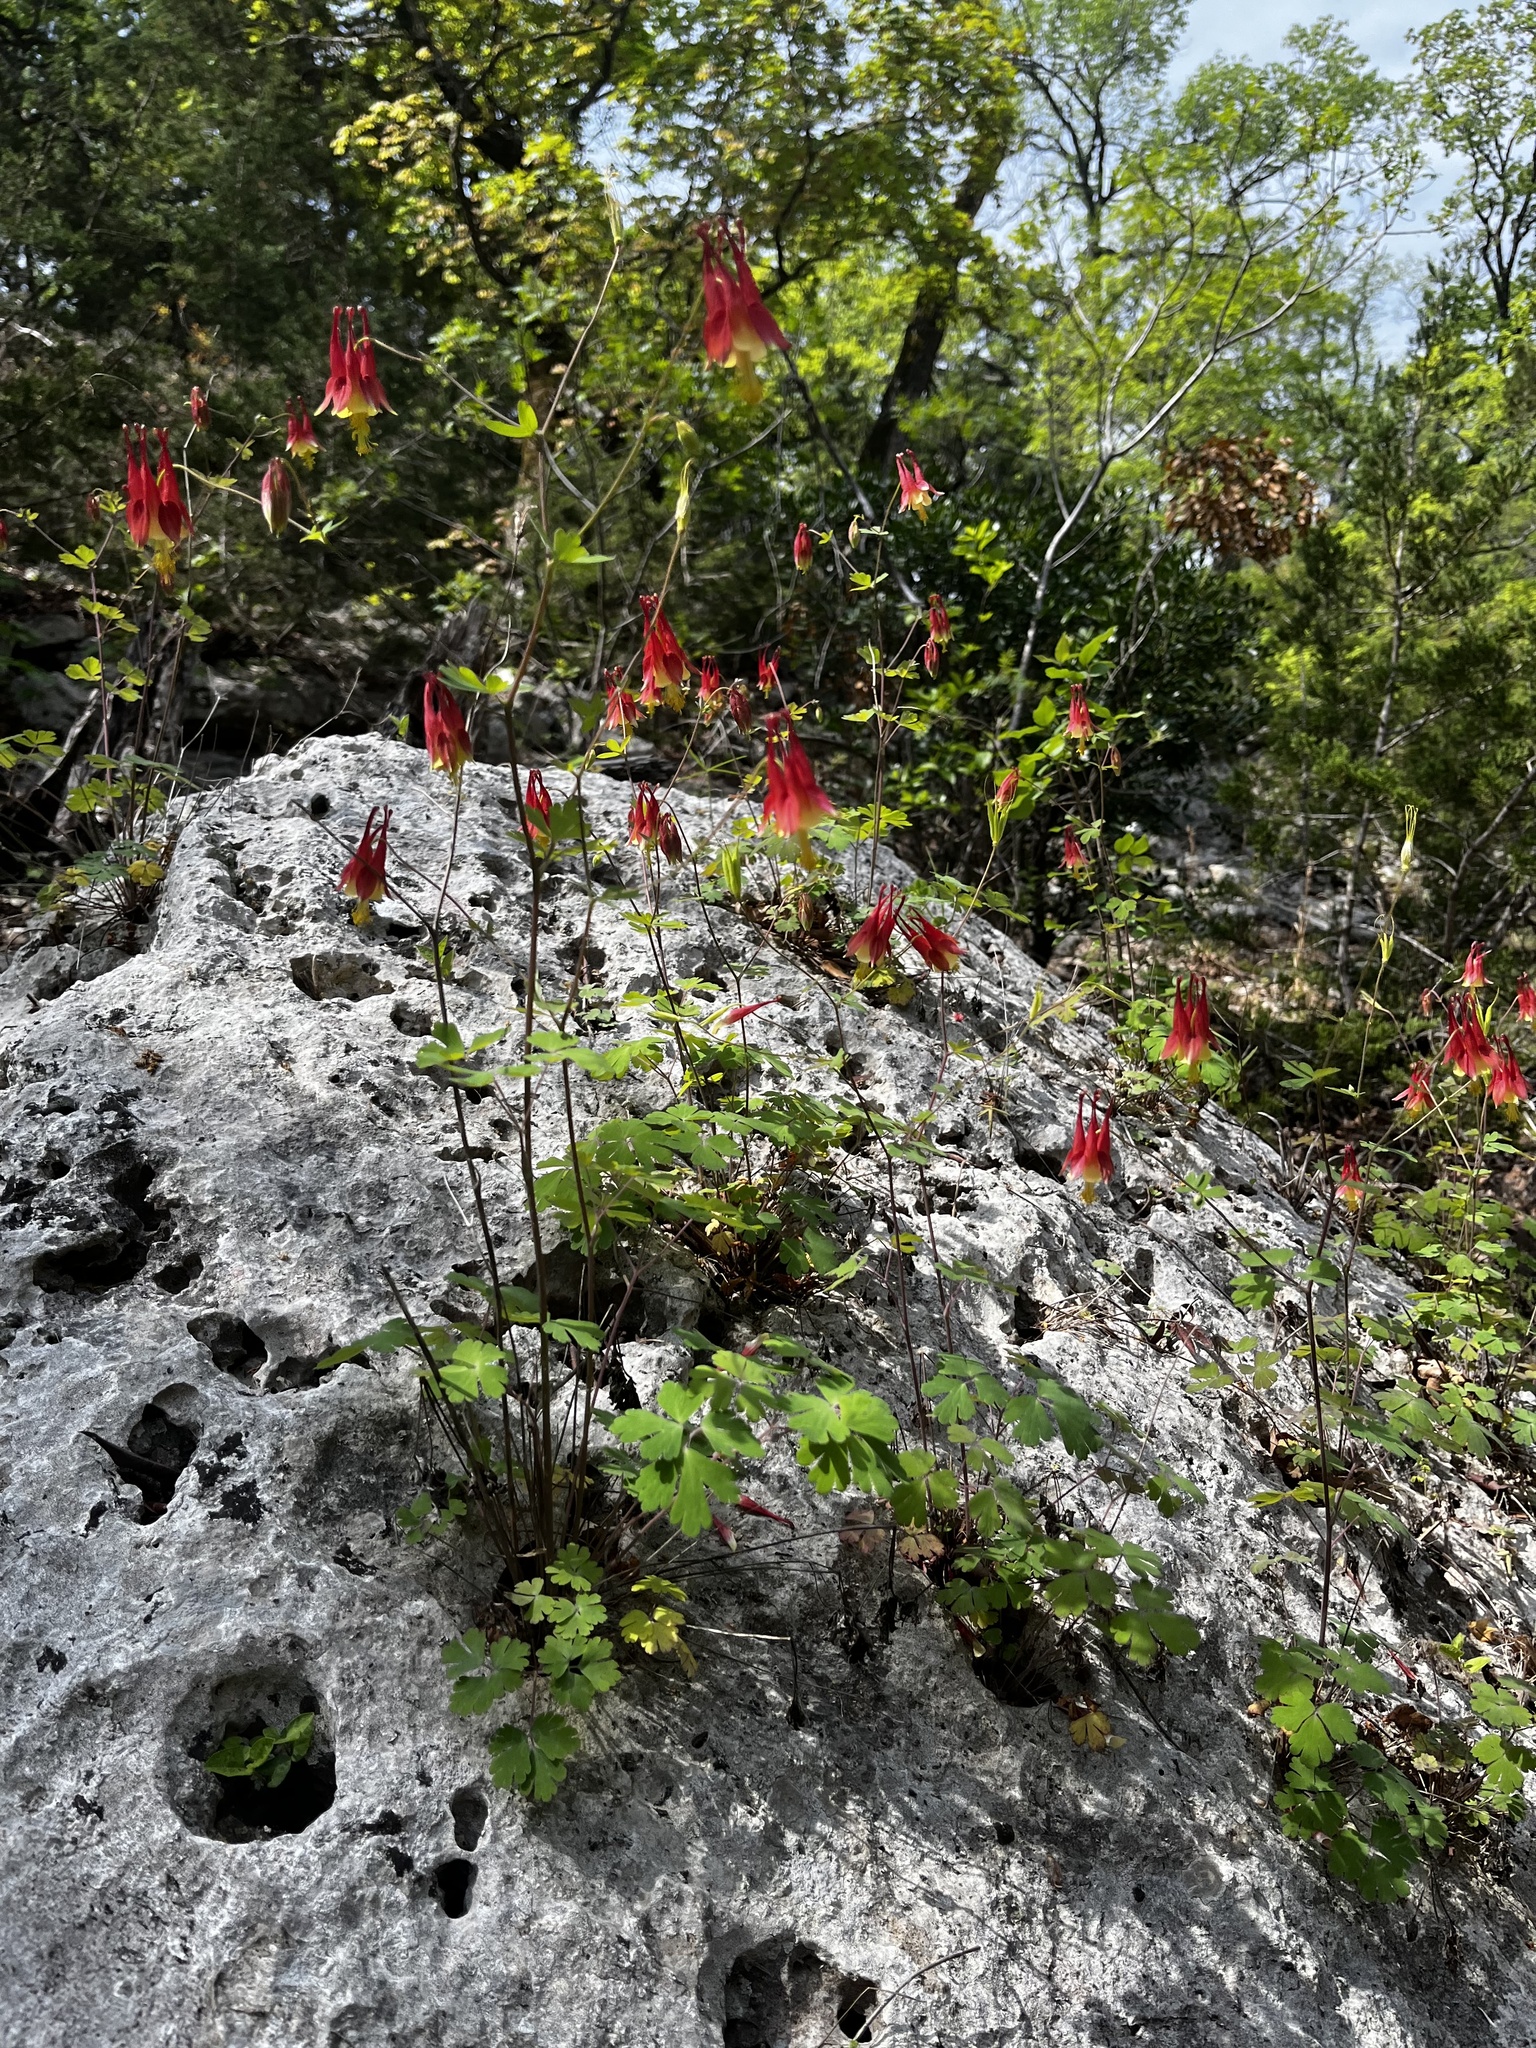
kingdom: Plantae
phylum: Tracheophyta
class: Magnoliopsida
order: Ranunculales
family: Ranunculaceae
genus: Aquilegia
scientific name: Aquilegia canadensis
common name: American columbine
